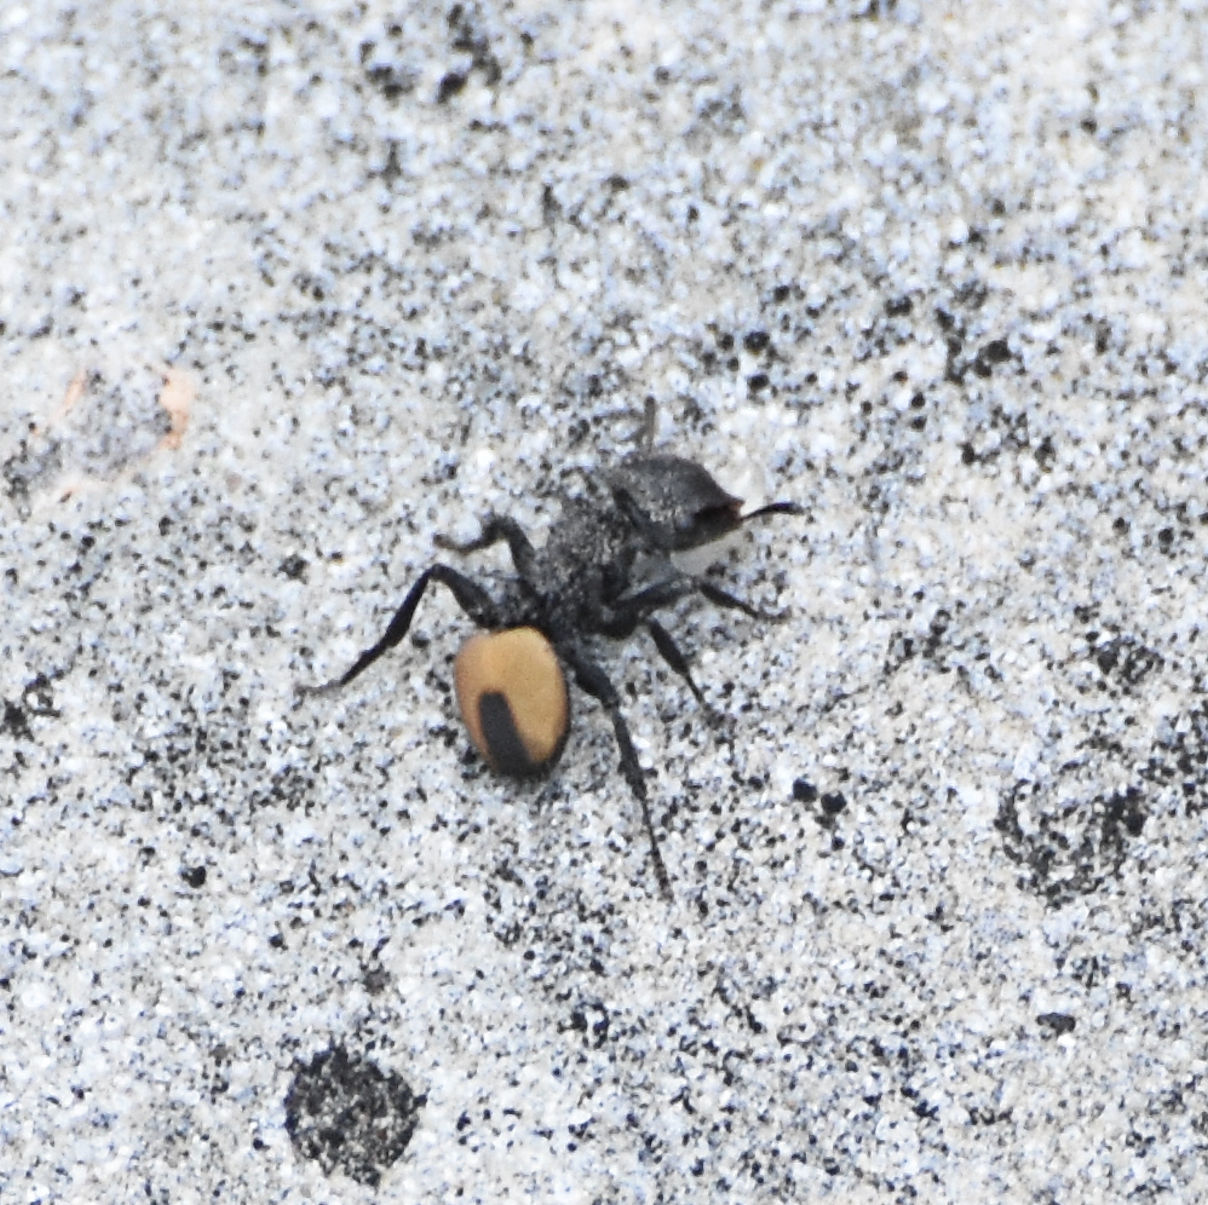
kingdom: Animalia
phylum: Arthropoda
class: Insecta
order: Hymenoptera
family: Formicidae
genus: Cephalotes
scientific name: Cephalotes unimaculatus
